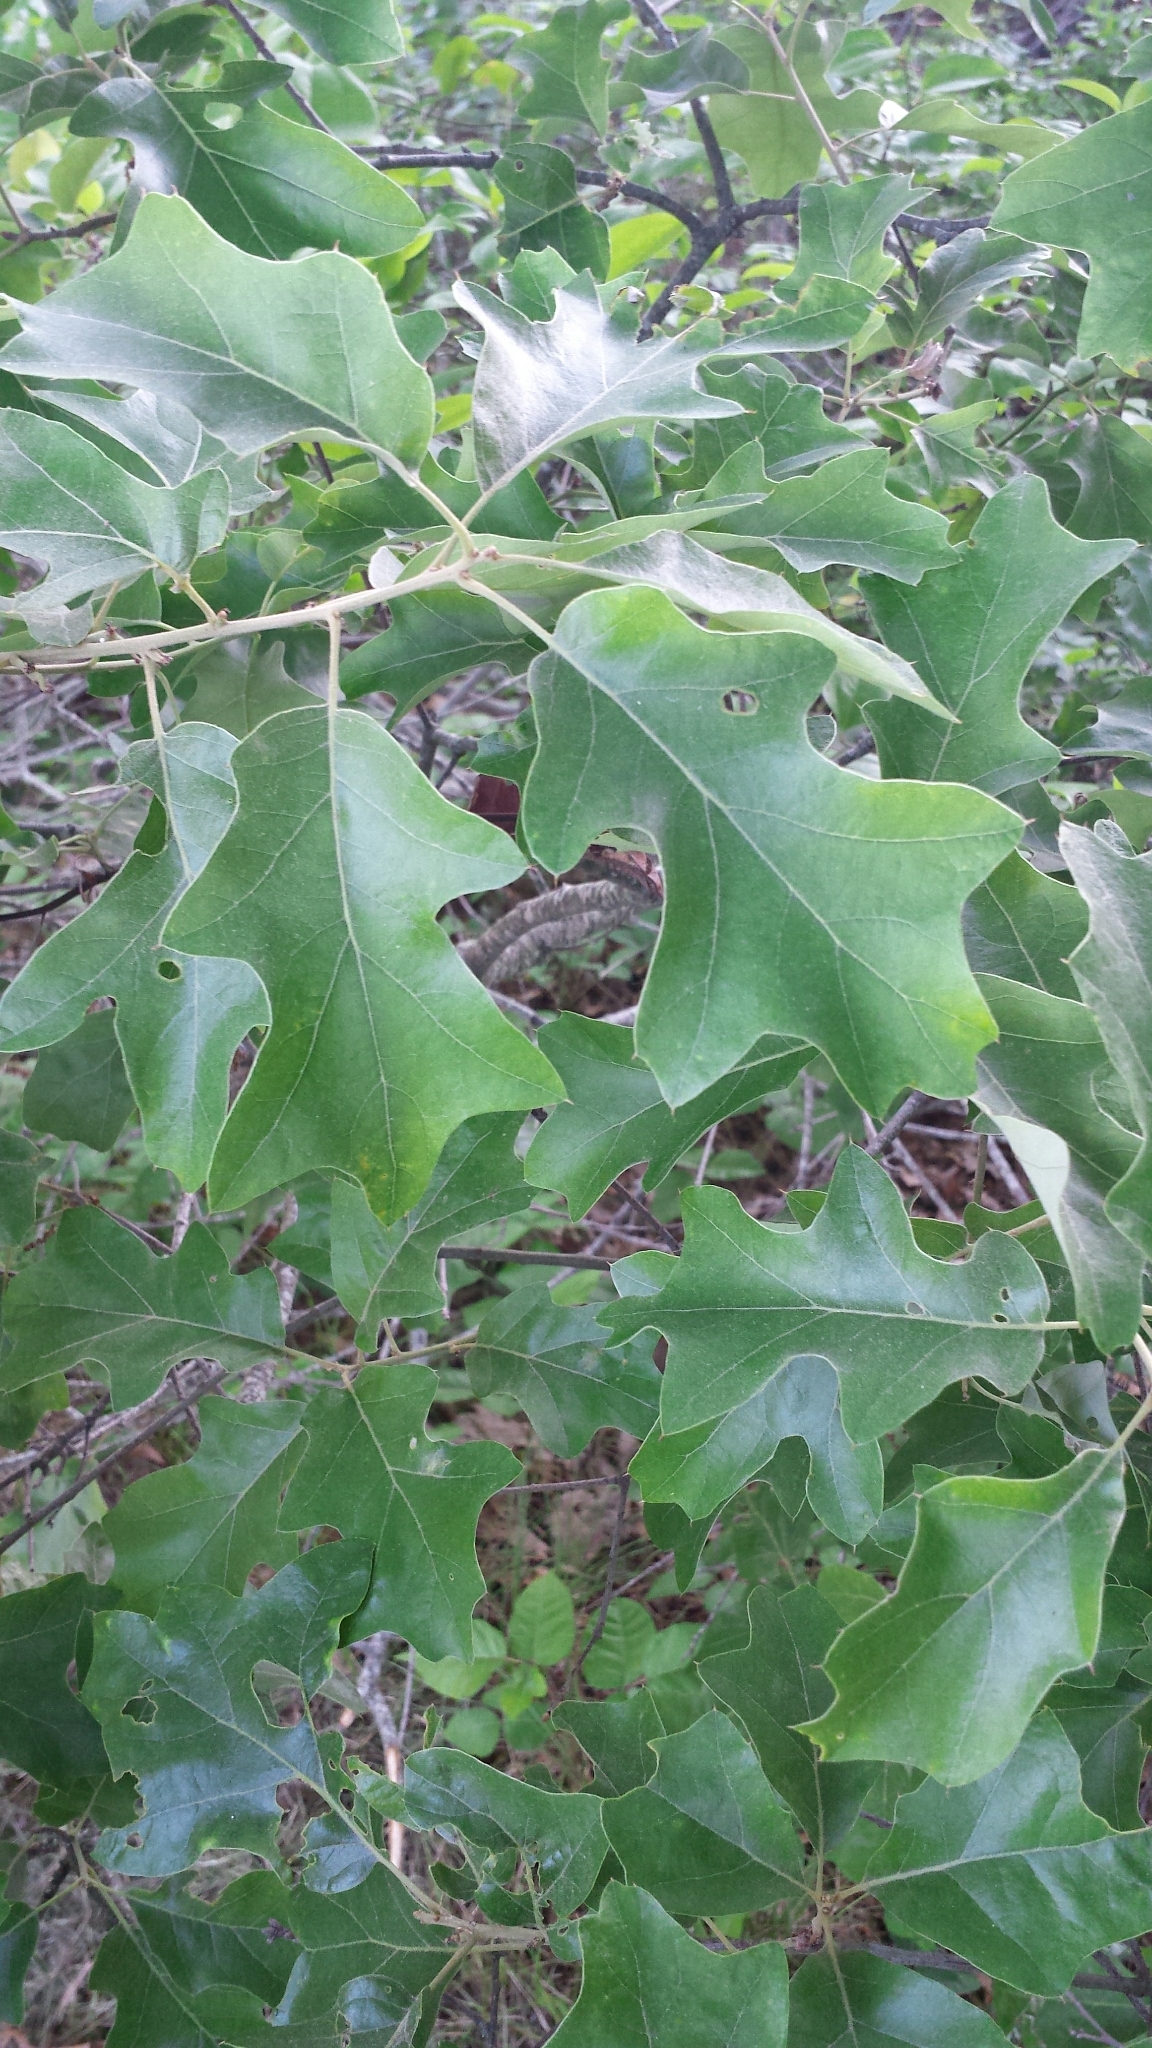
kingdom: Plantae
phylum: Tracheophyta
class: Magnoliopsida
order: Fagales
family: Fagaceae
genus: Quercus
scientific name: Quercus ilicifolia
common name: Bear oak
